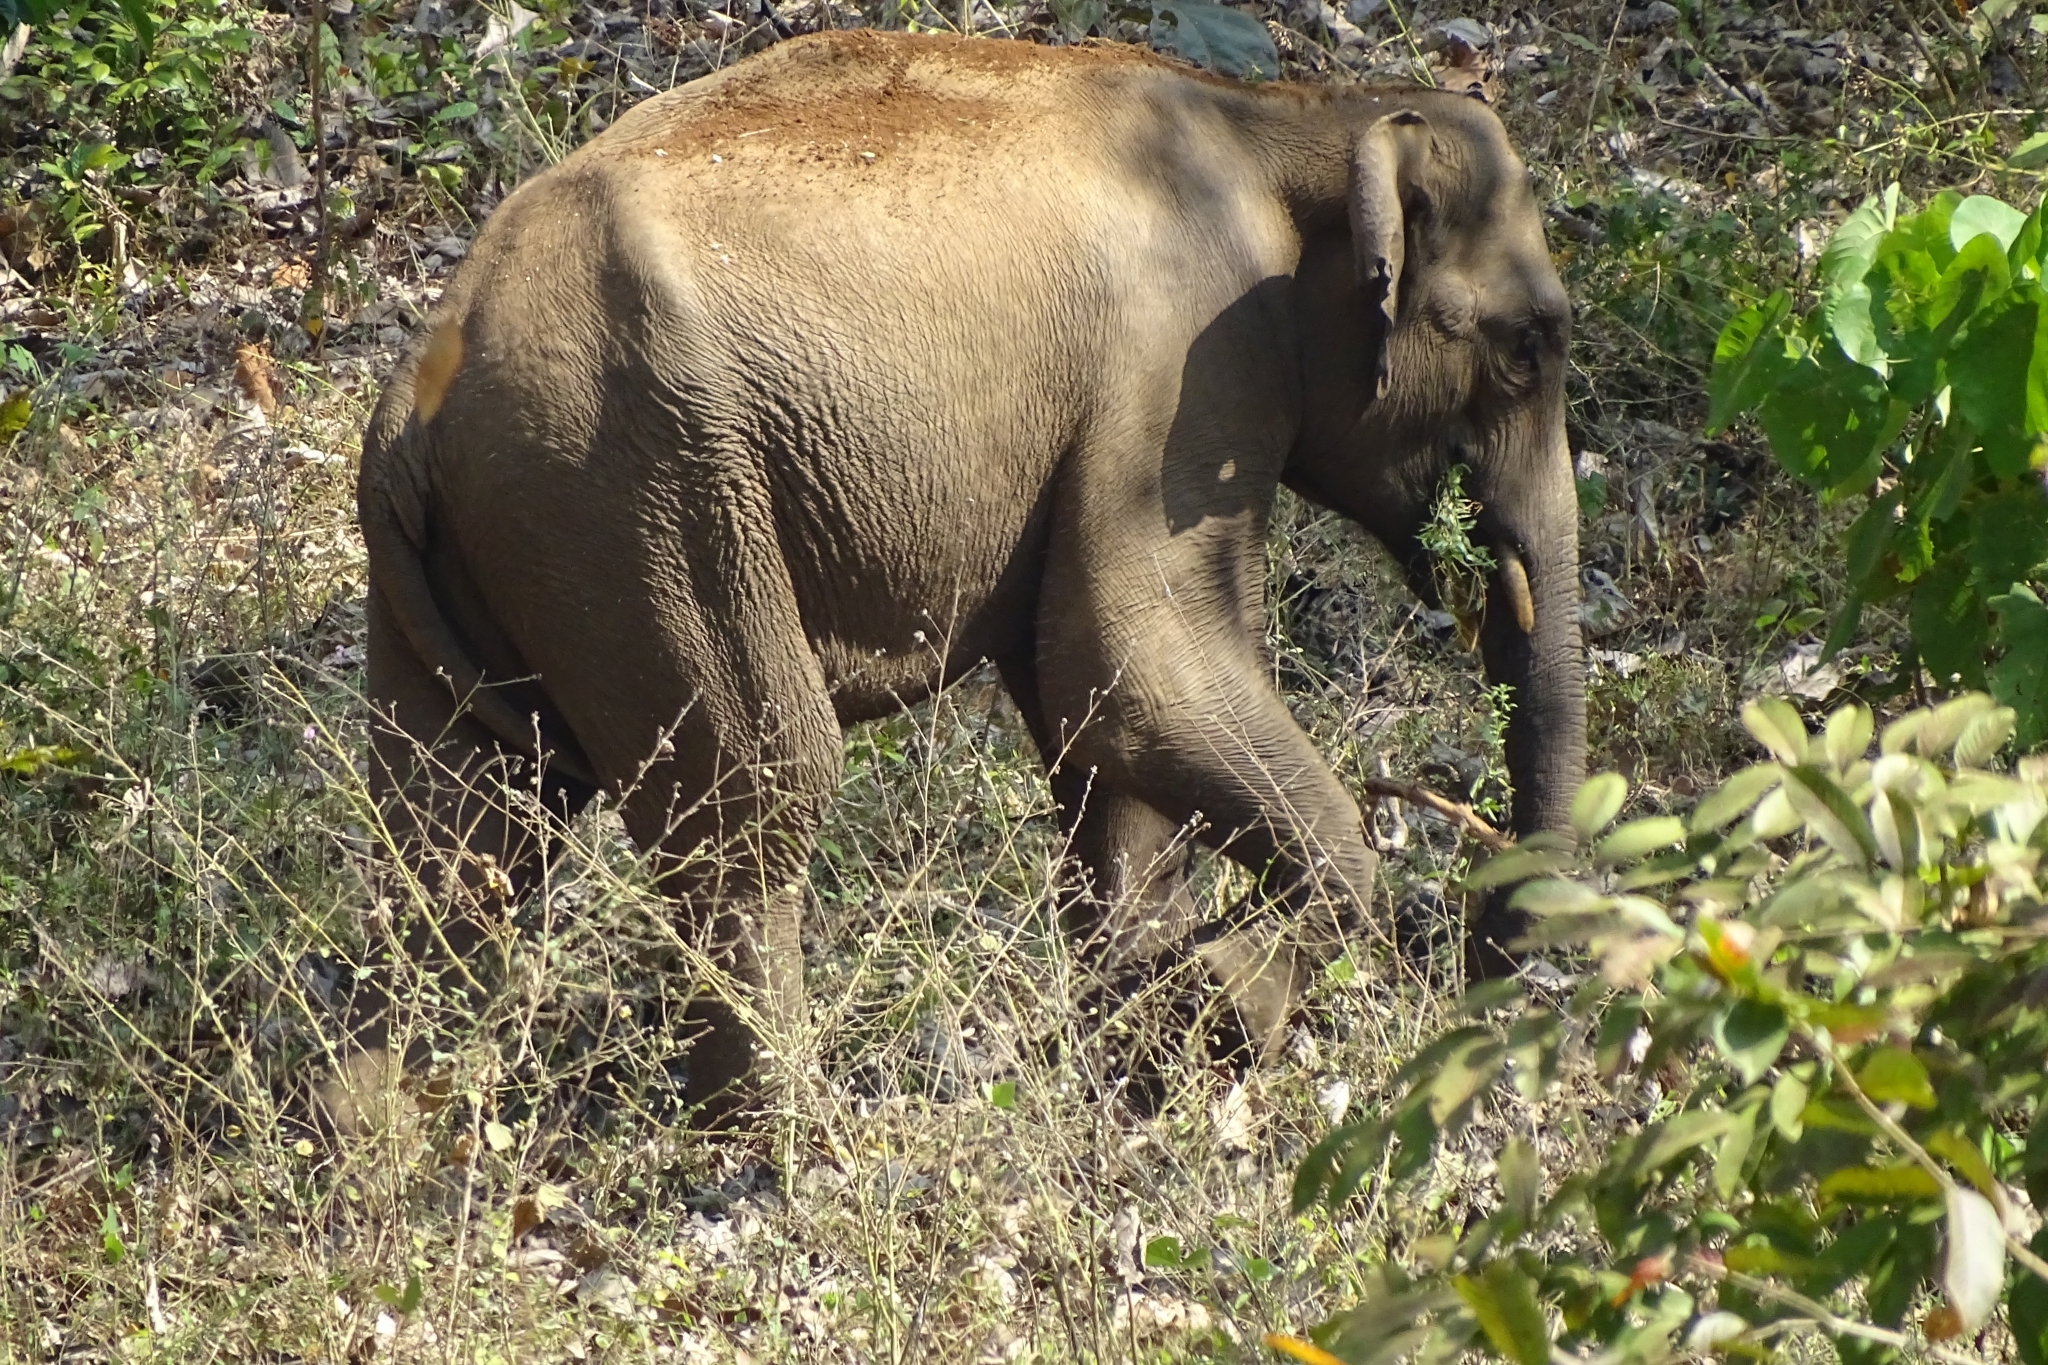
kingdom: Animalia
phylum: Chordata
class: Mammalia
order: Proboscidea
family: Elephantidae
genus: Elephas
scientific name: Elephas maximus
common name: Asian elephant
